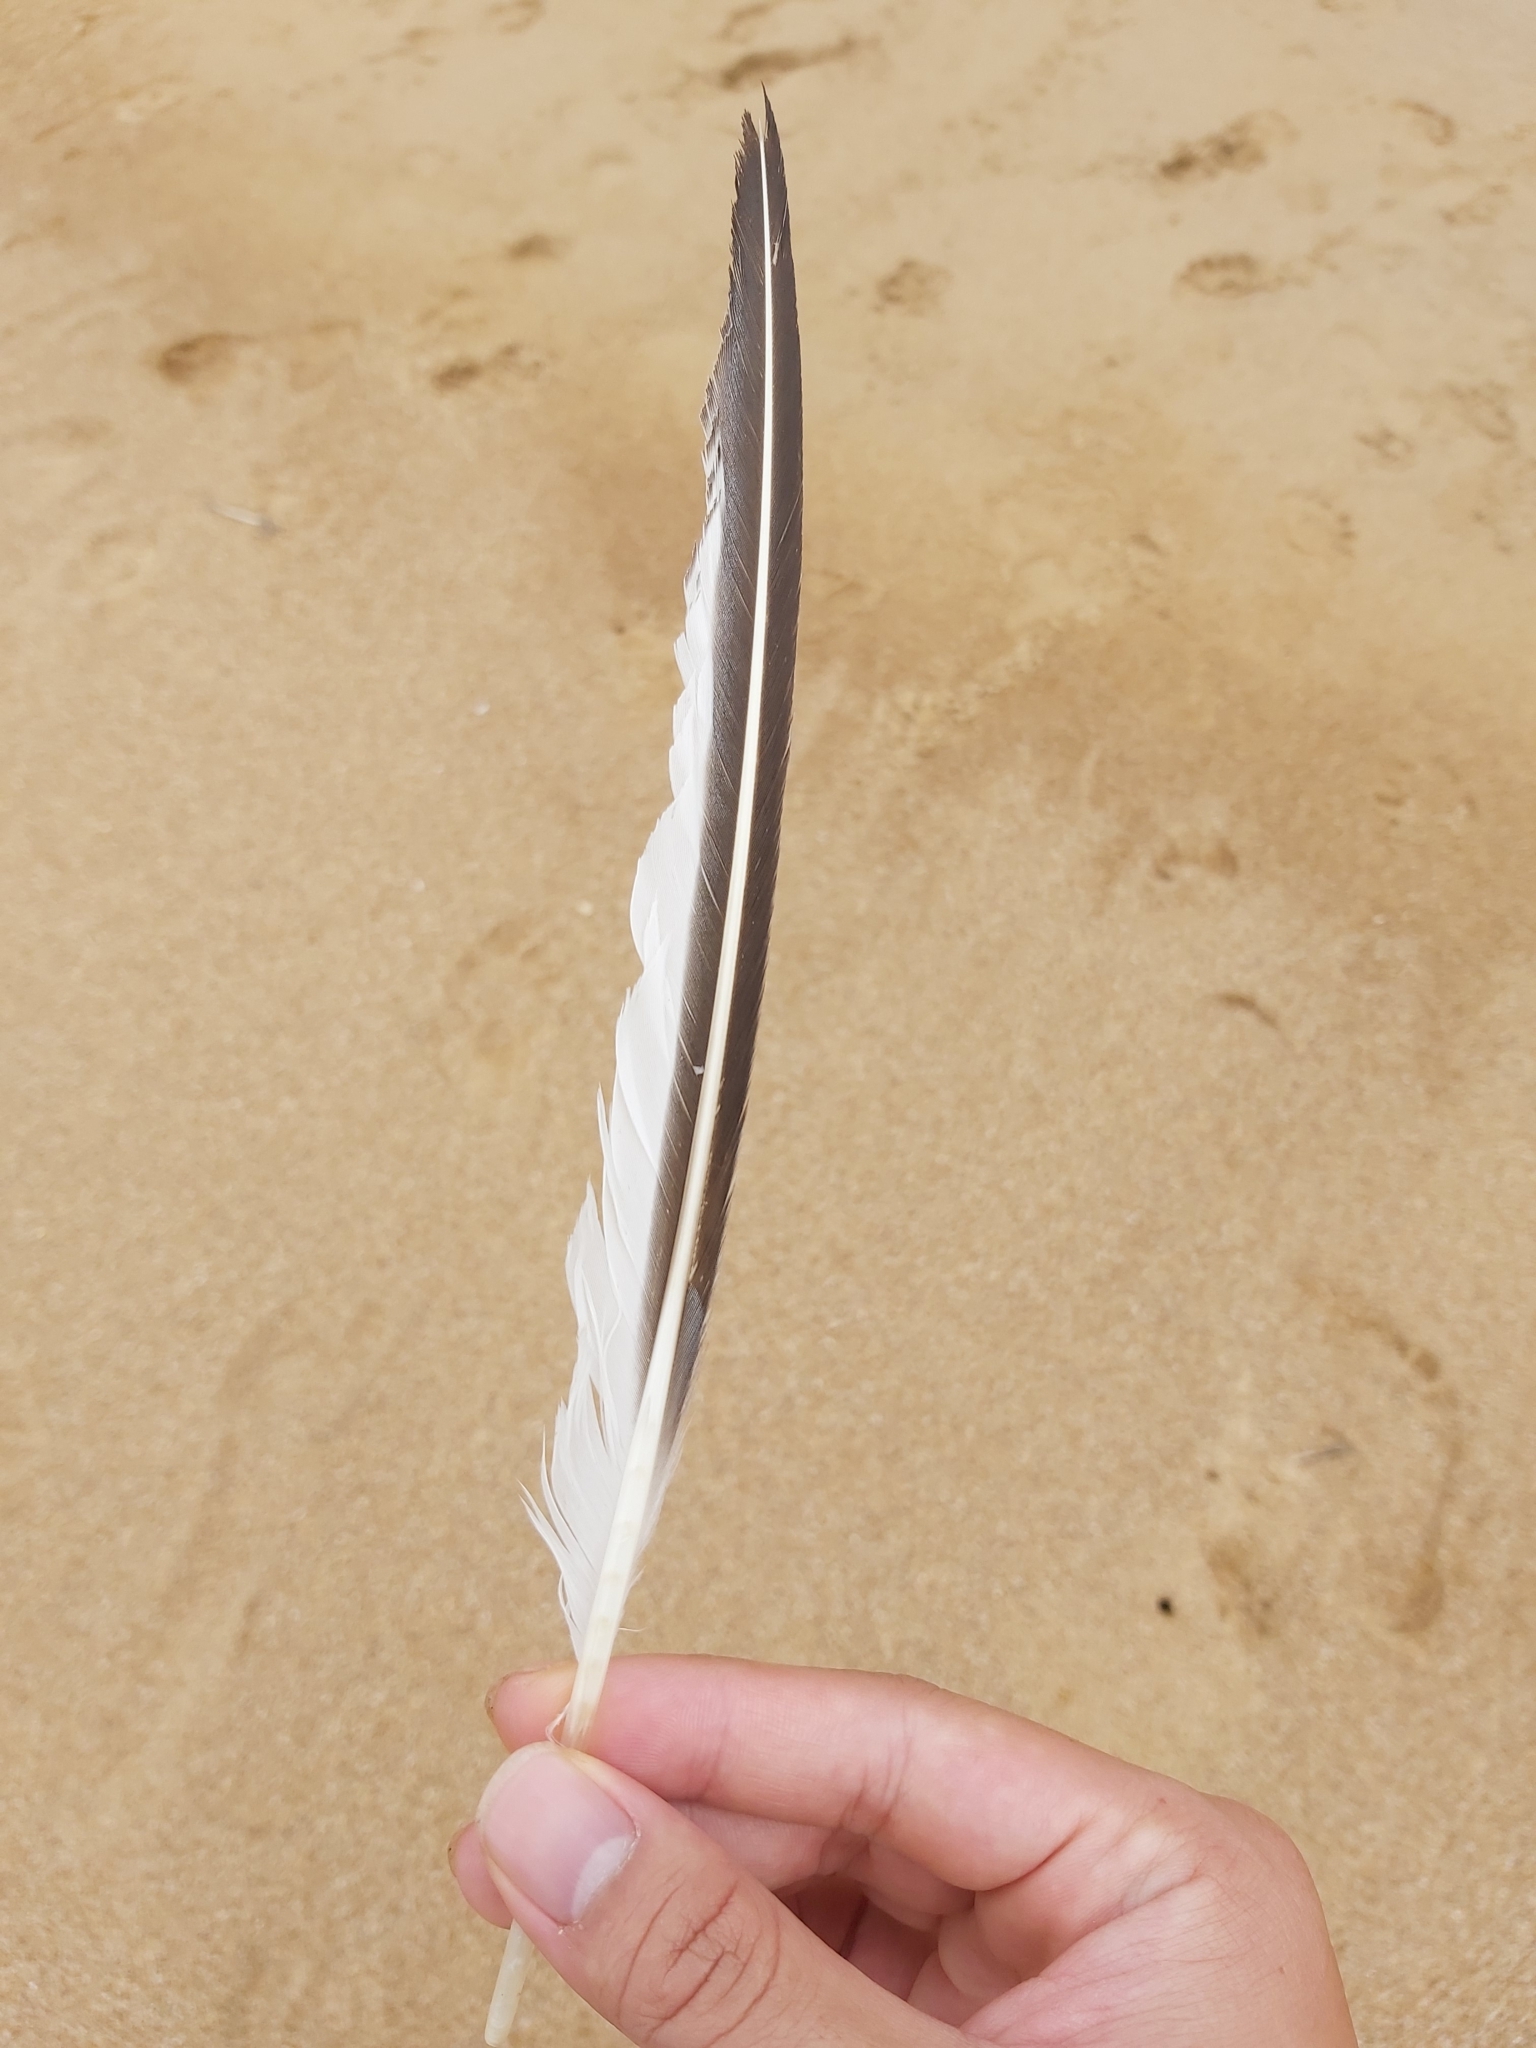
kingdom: Animalia
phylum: Chordata
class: Aves
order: Charadriiformes
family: Laridae
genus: Thalasseus
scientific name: Thalasseus bergii
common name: Greater crested tern
